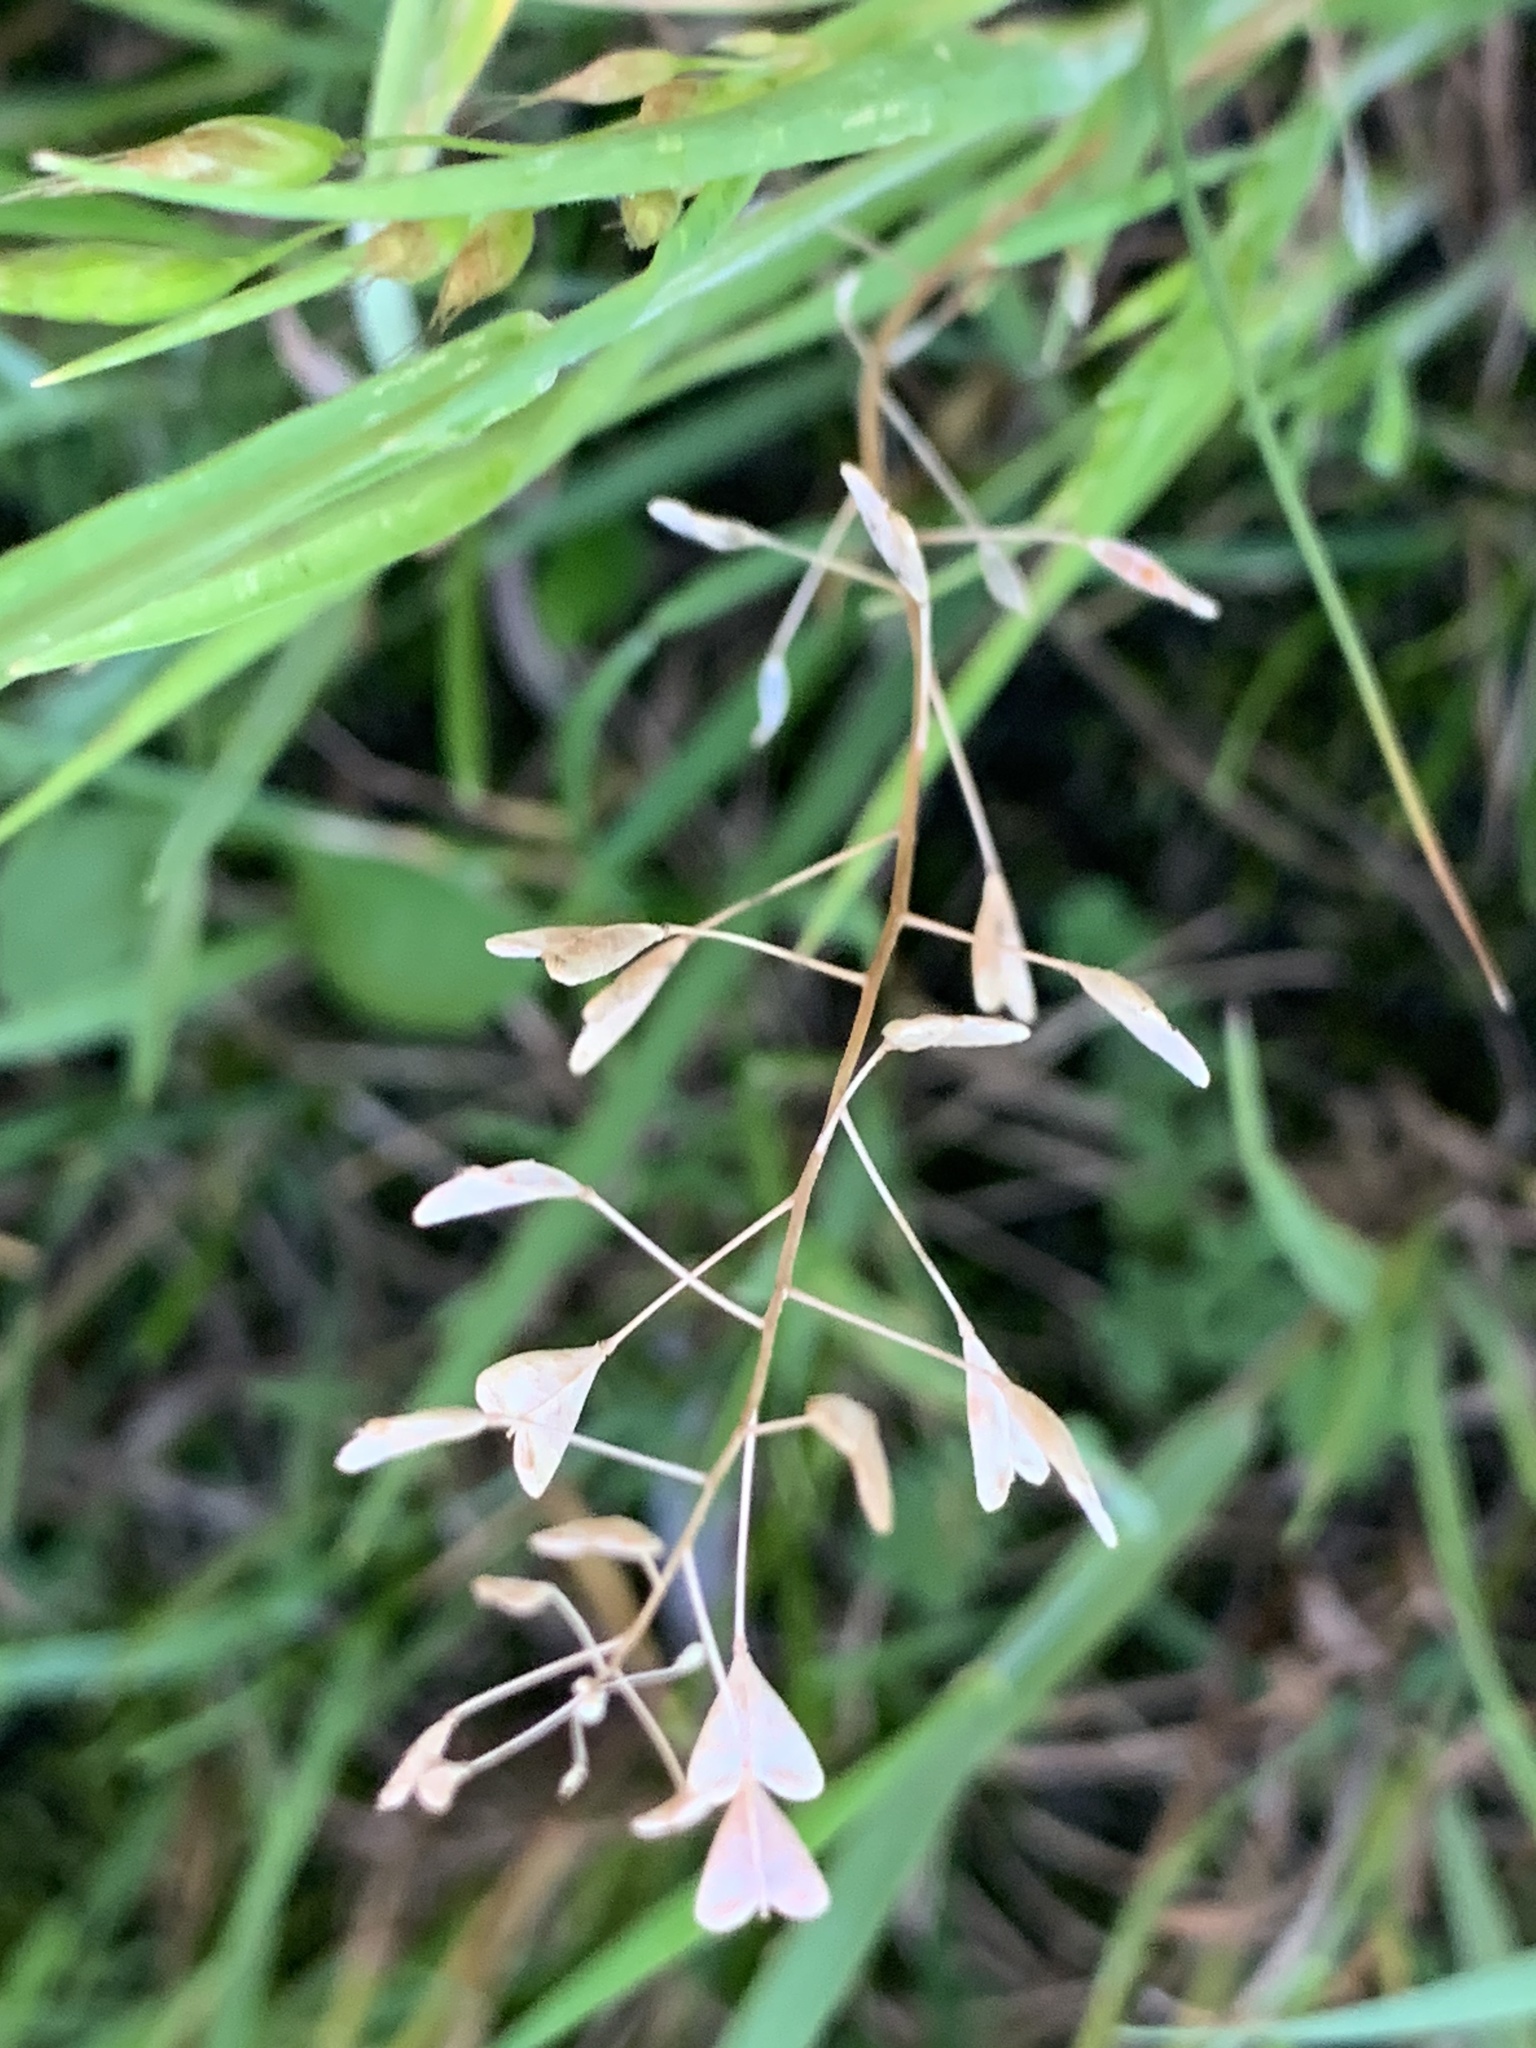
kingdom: Plantae
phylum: Tracheophyta
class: Magnoliopsida
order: Brassicales
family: Brassicaceae
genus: Capsella
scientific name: Capsella bursa-pastoris
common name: Shepherd's purse
